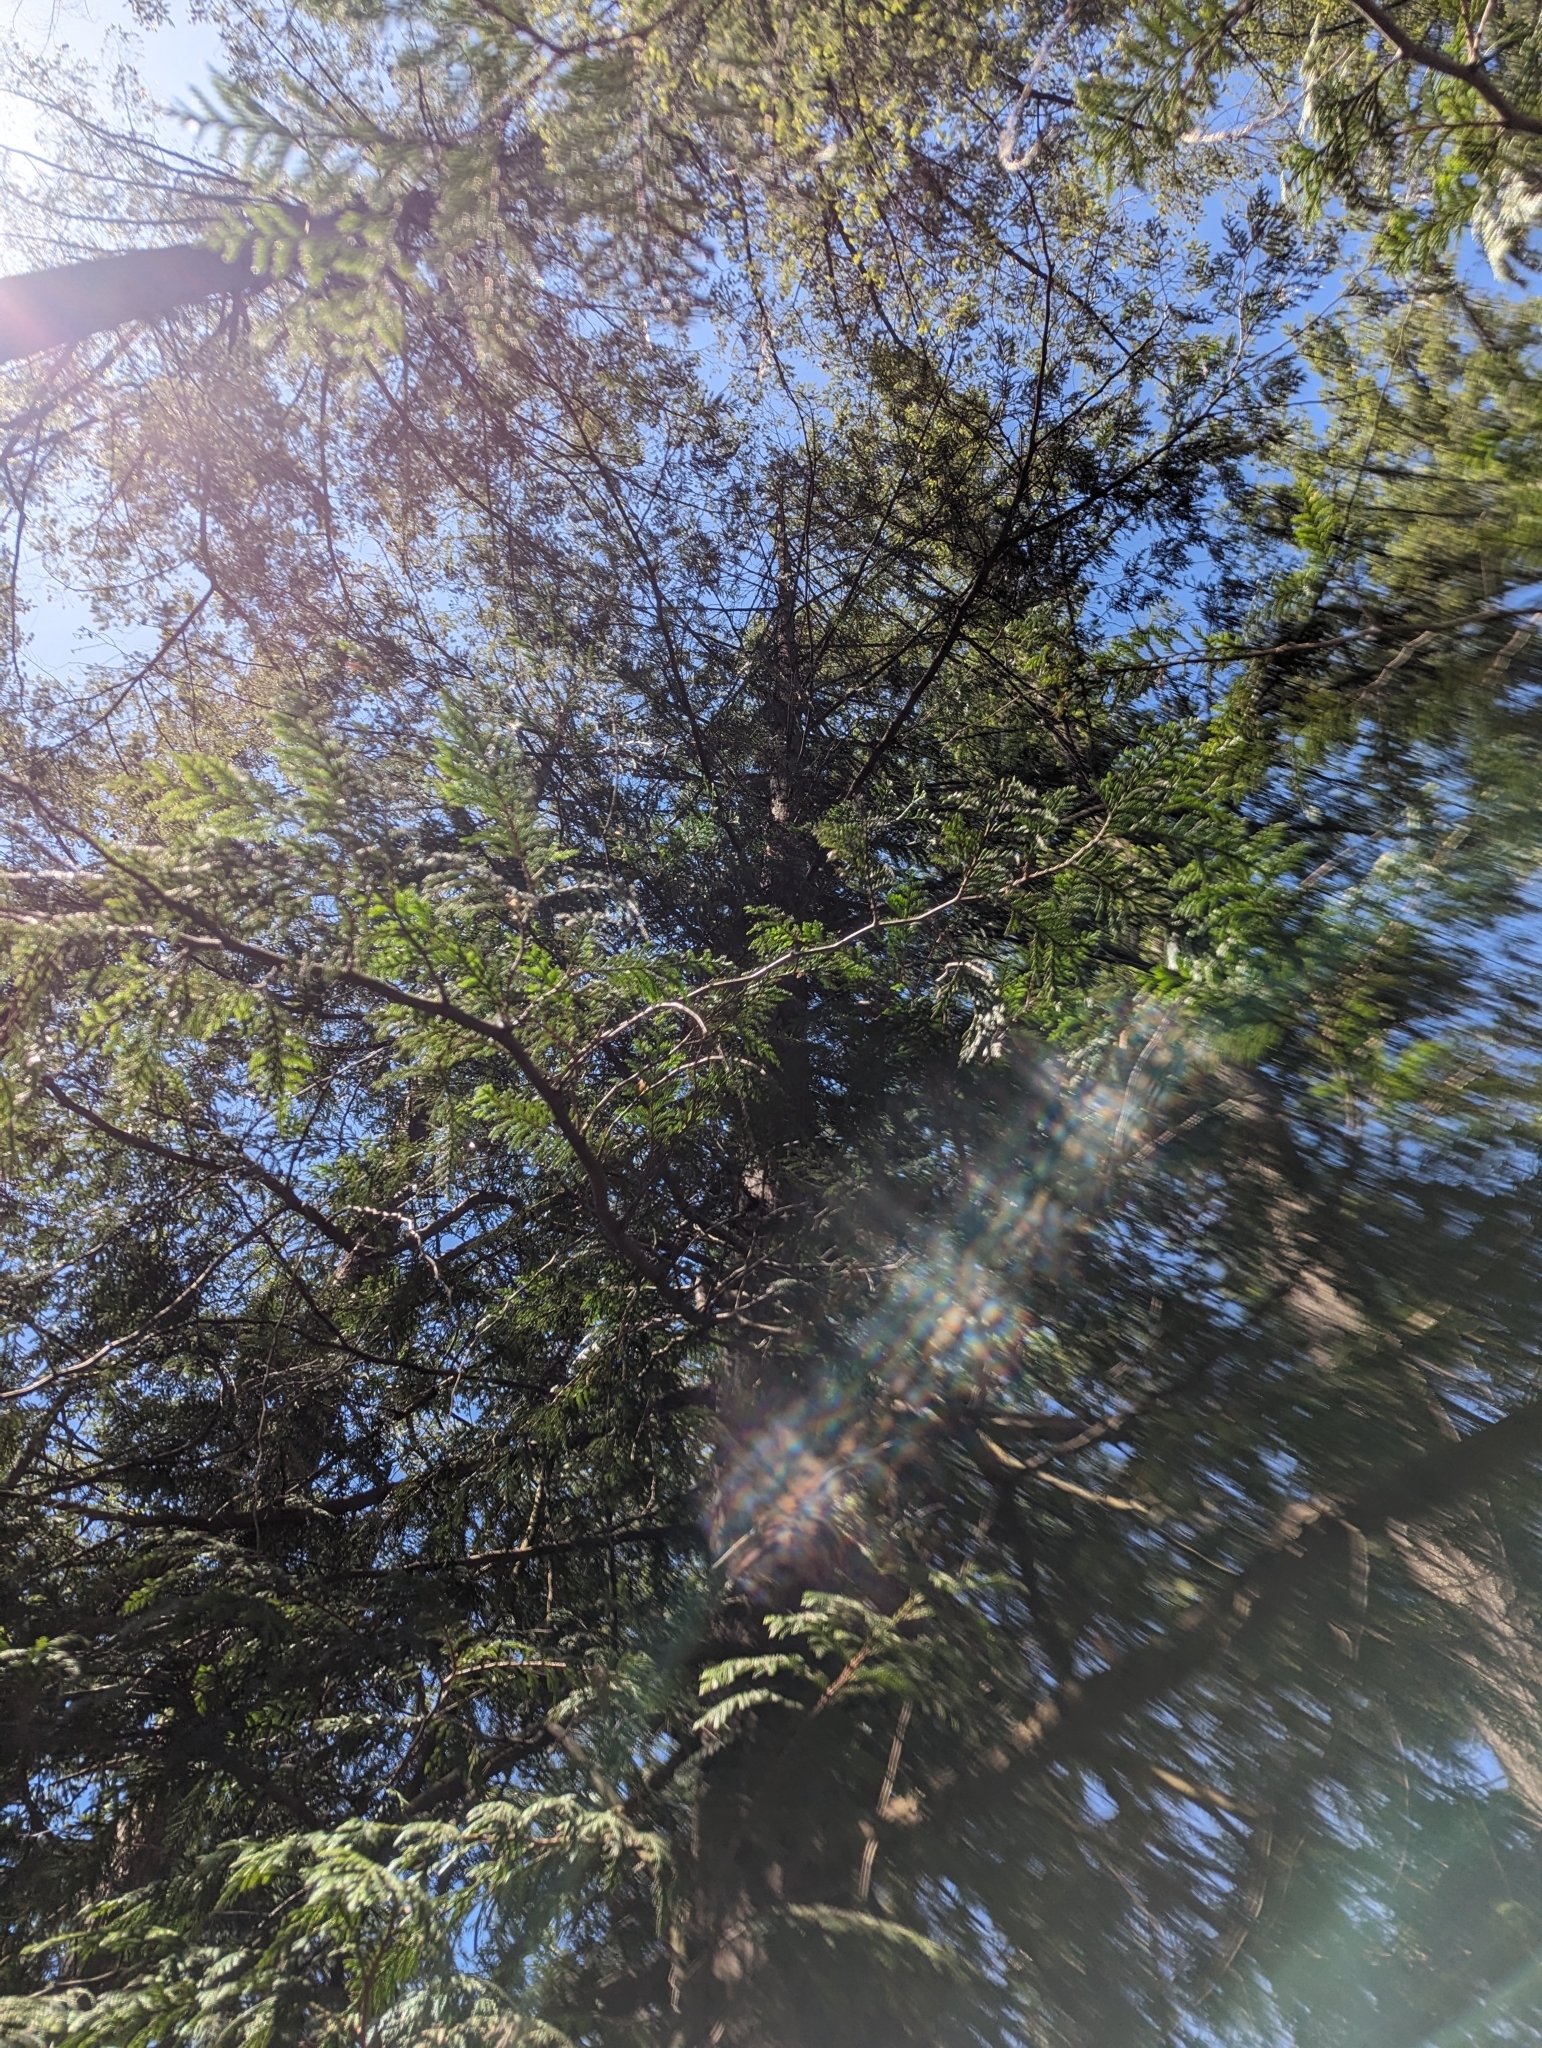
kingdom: Plantae
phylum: Tracheophyta
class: Pinopsida
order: Pinales
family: Cupressaceae
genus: Thuja
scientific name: Thuja plicata
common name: Western red-cedar
